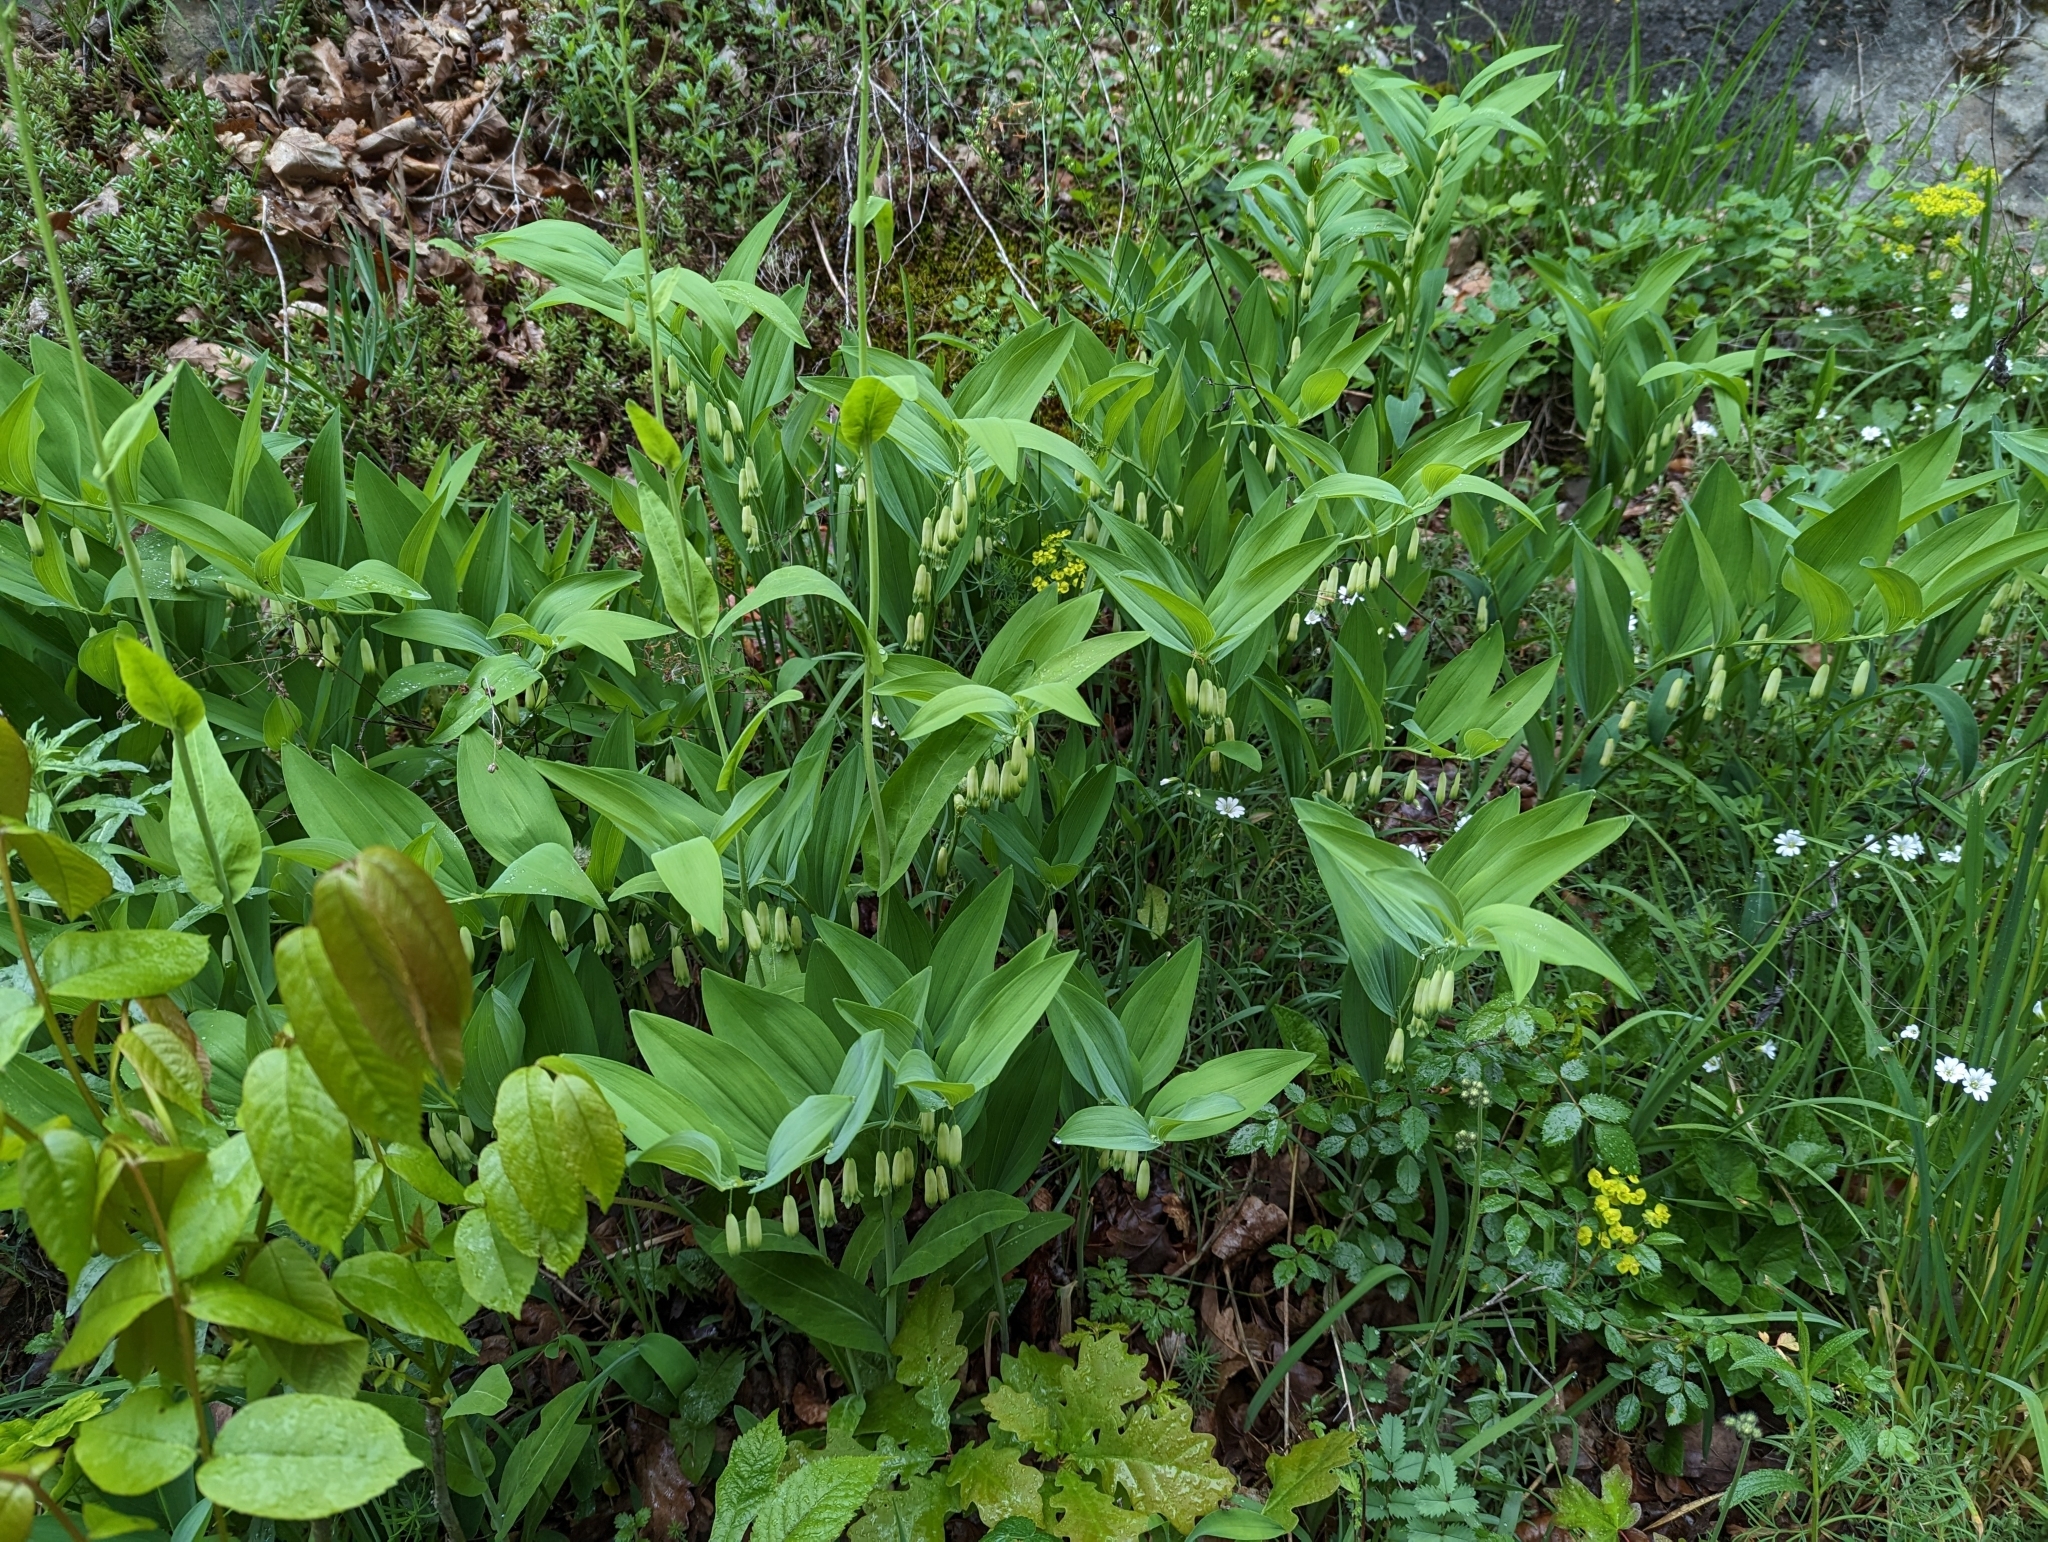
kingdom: Plantae
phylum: Tracheophyta
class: Liliopsida
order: Asparagales
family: Asparagaceae
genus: Polygonatum
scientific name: Polygonatum odoratum
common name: Angular solomon's-seal
